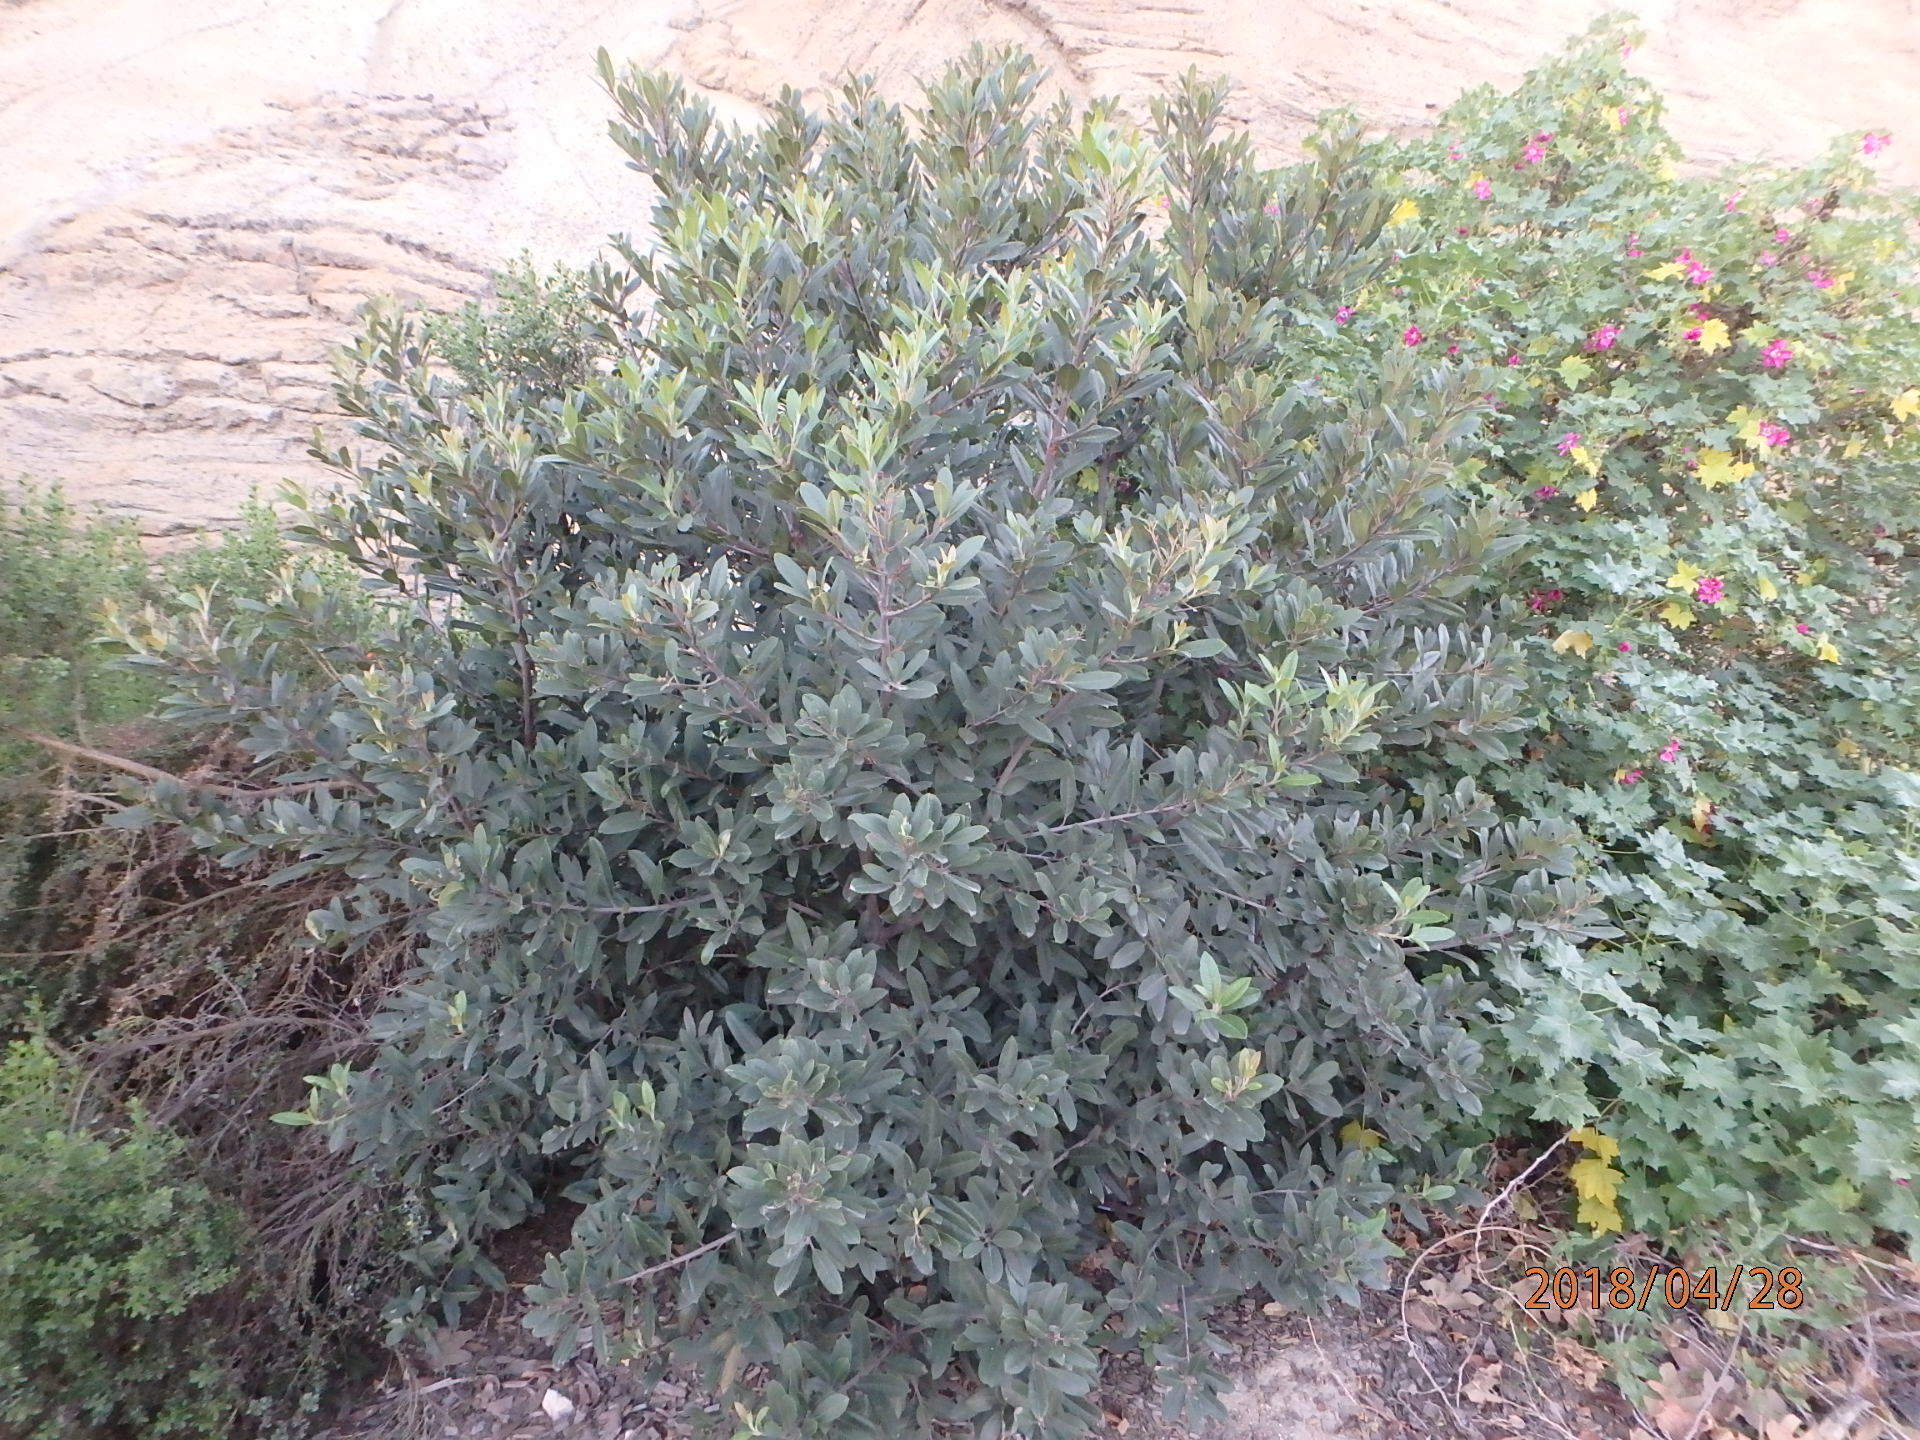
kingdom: Plantae
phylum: Tracheophyta
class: Magnoliopsida
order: Rosales
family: Rosaceae
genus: Heteromeles
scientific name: Heteromeles arbutifolia
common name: California-holly
